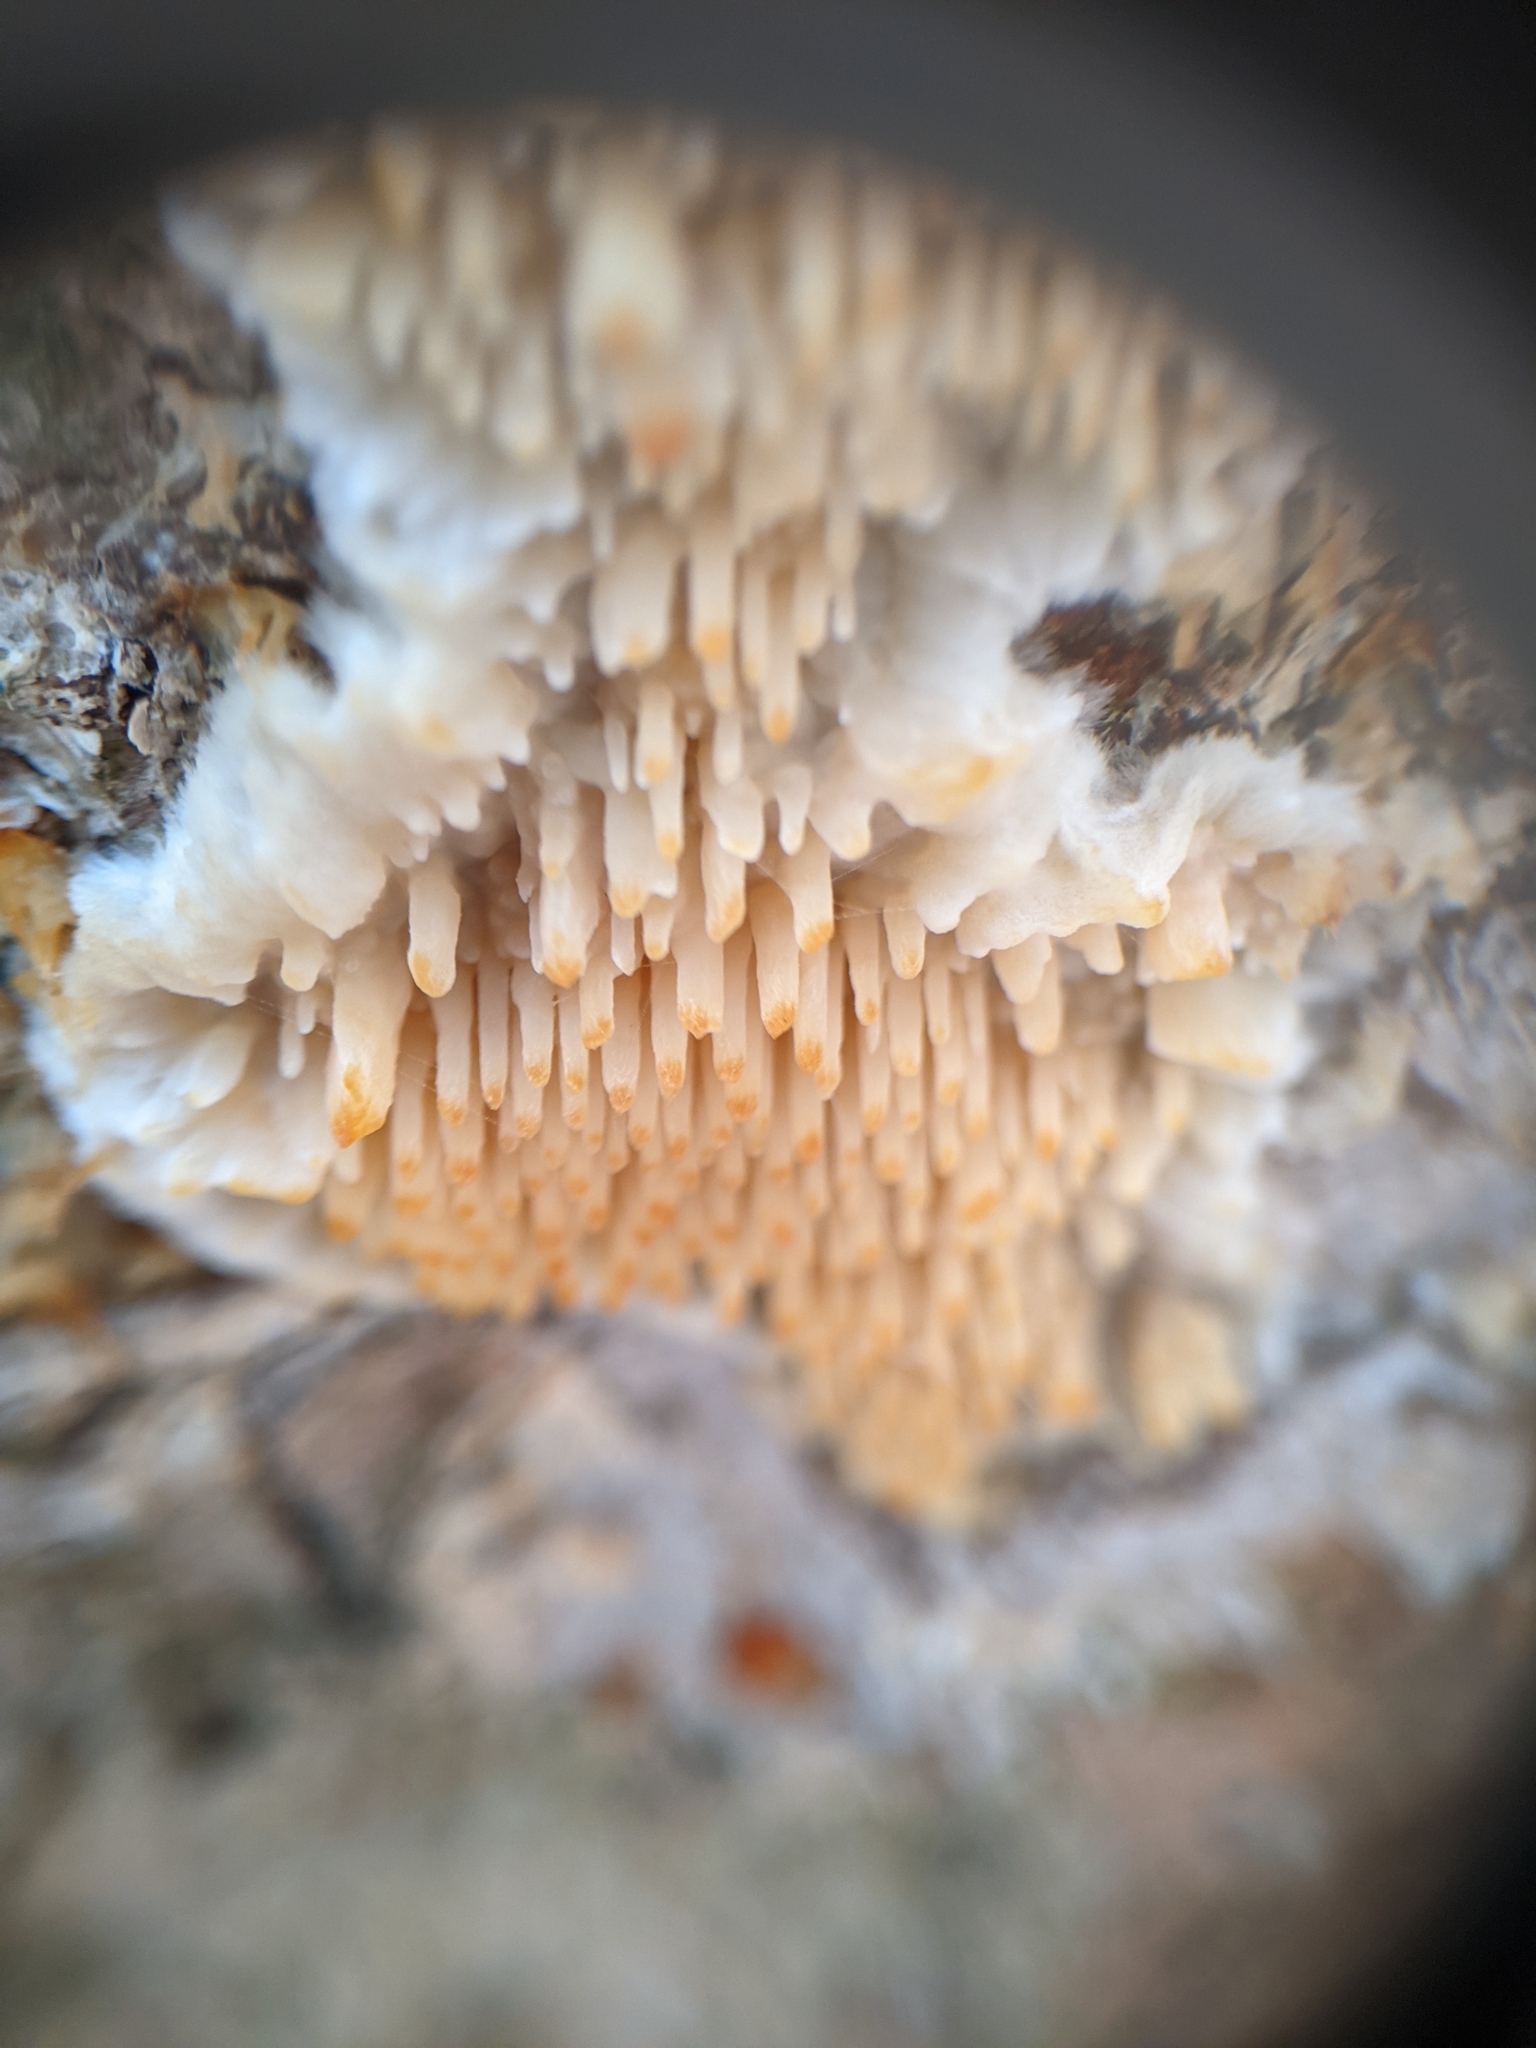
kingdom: Fungi
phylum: Basidiomycota
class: Agaricomycetes
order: Agaricales
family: Radulomycetaceae
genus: Radulomyces
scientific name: Radulomyces copelandii
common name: Asian beauty
